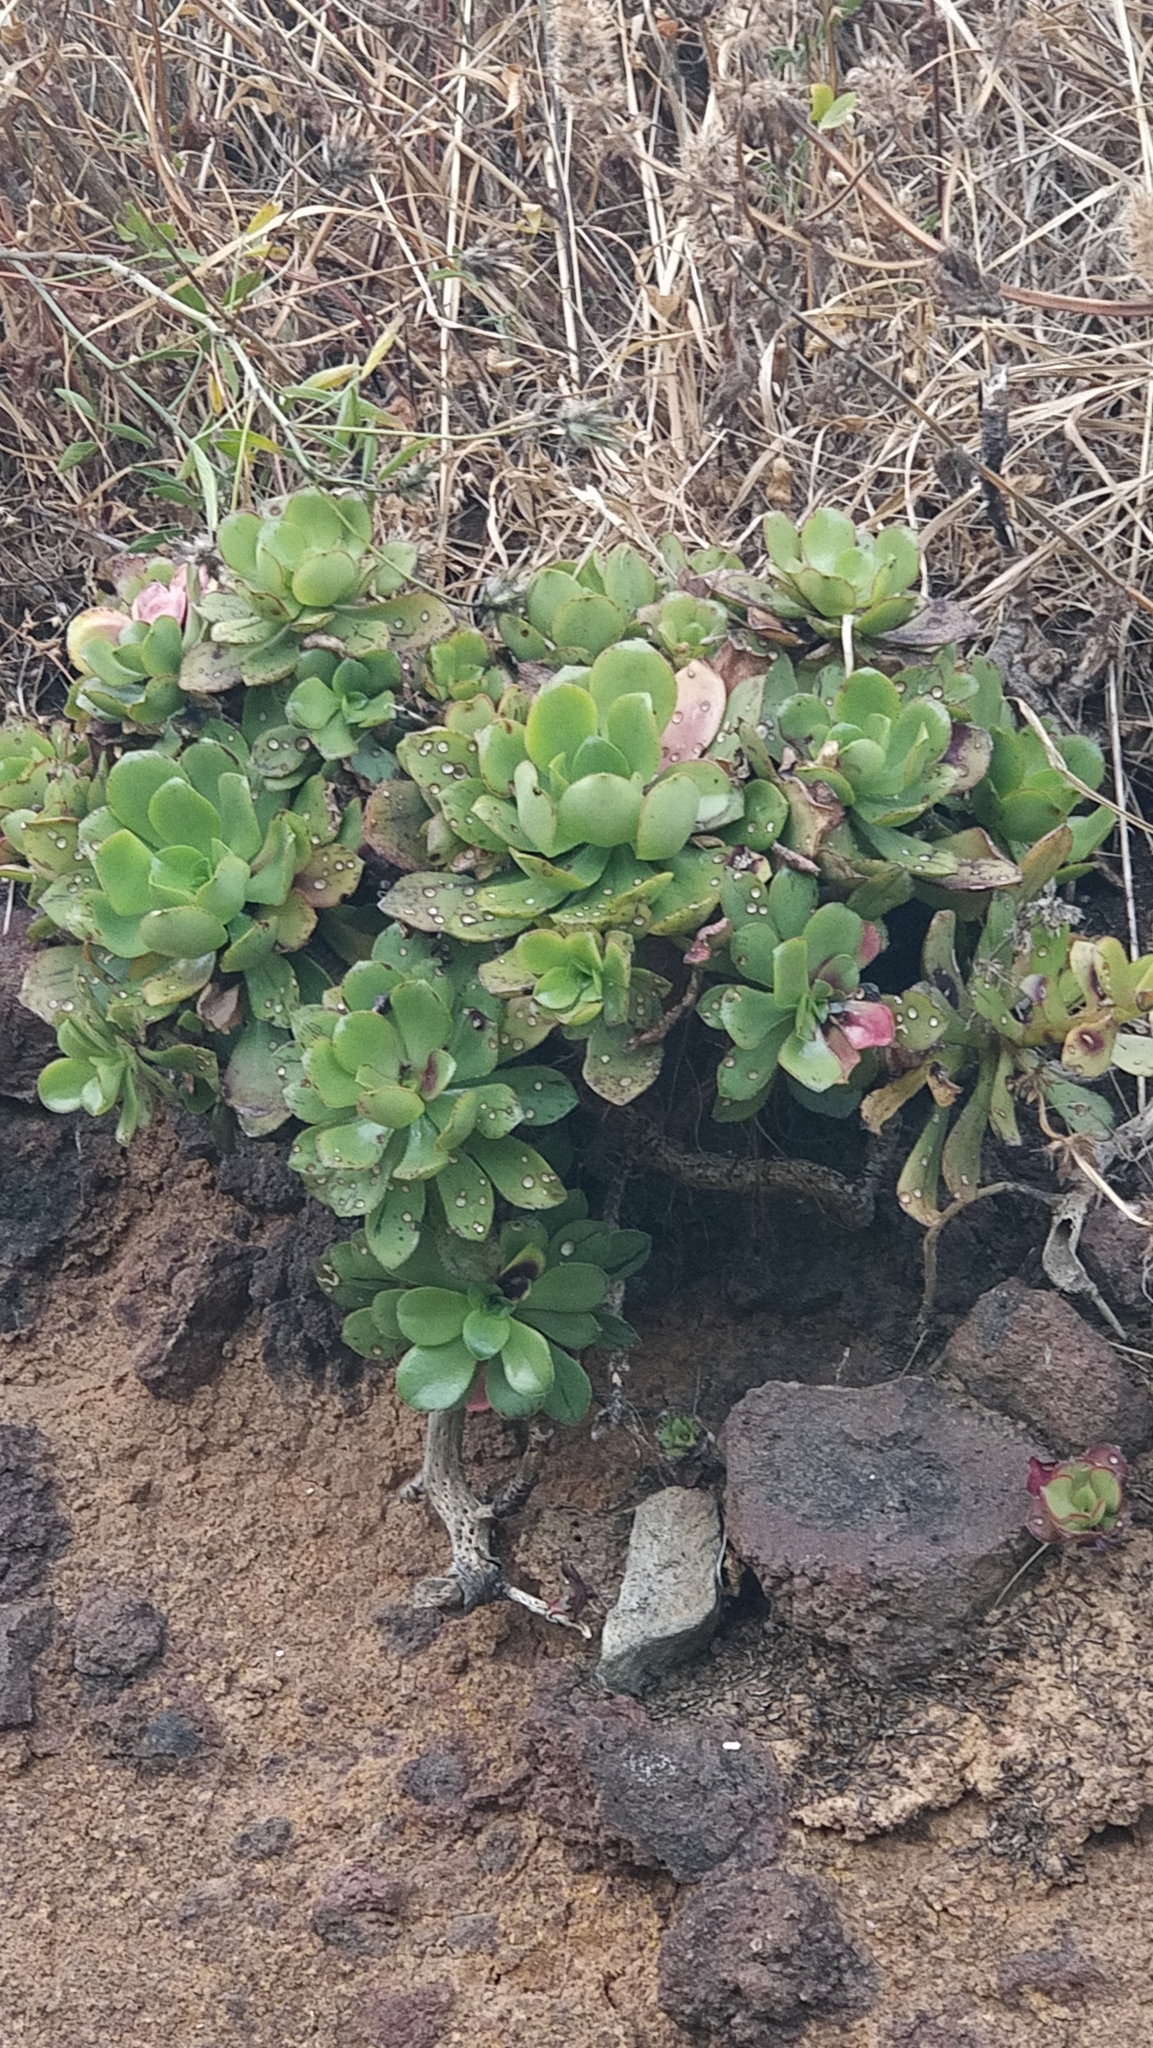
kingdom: Plantae
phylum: Tracheophyta
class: Magnoliopsida
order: Saxifragales
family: Crassulaceae
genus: Aeonium
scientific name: Aeonium glutinosum
